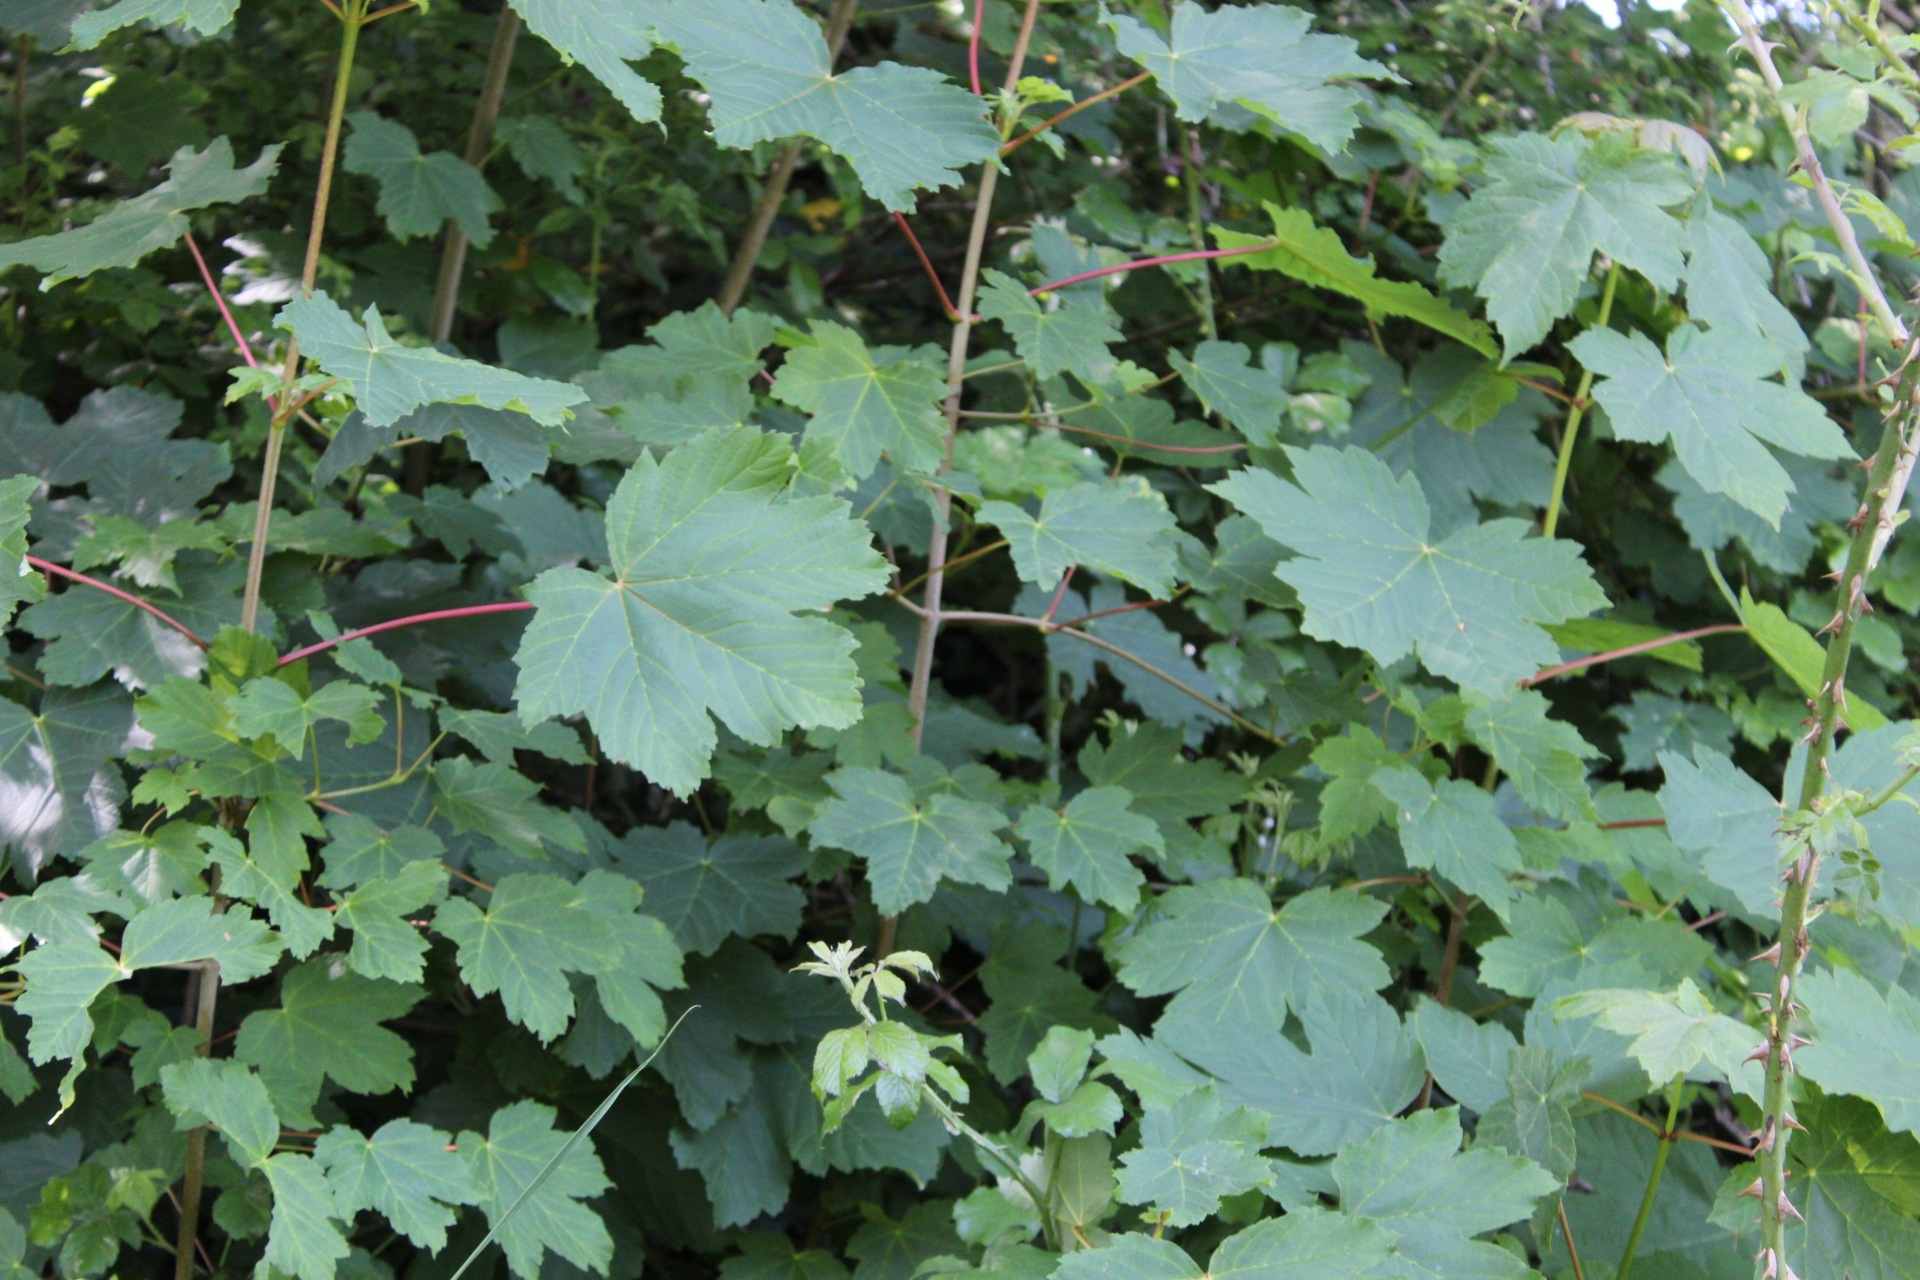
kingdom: Plantae
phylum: Tracheophyta
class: Magnoliopsida
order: Sapindales
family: Sapindaceae
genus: Acer
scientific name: Acer pseudoplatanus
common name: Sycamore
